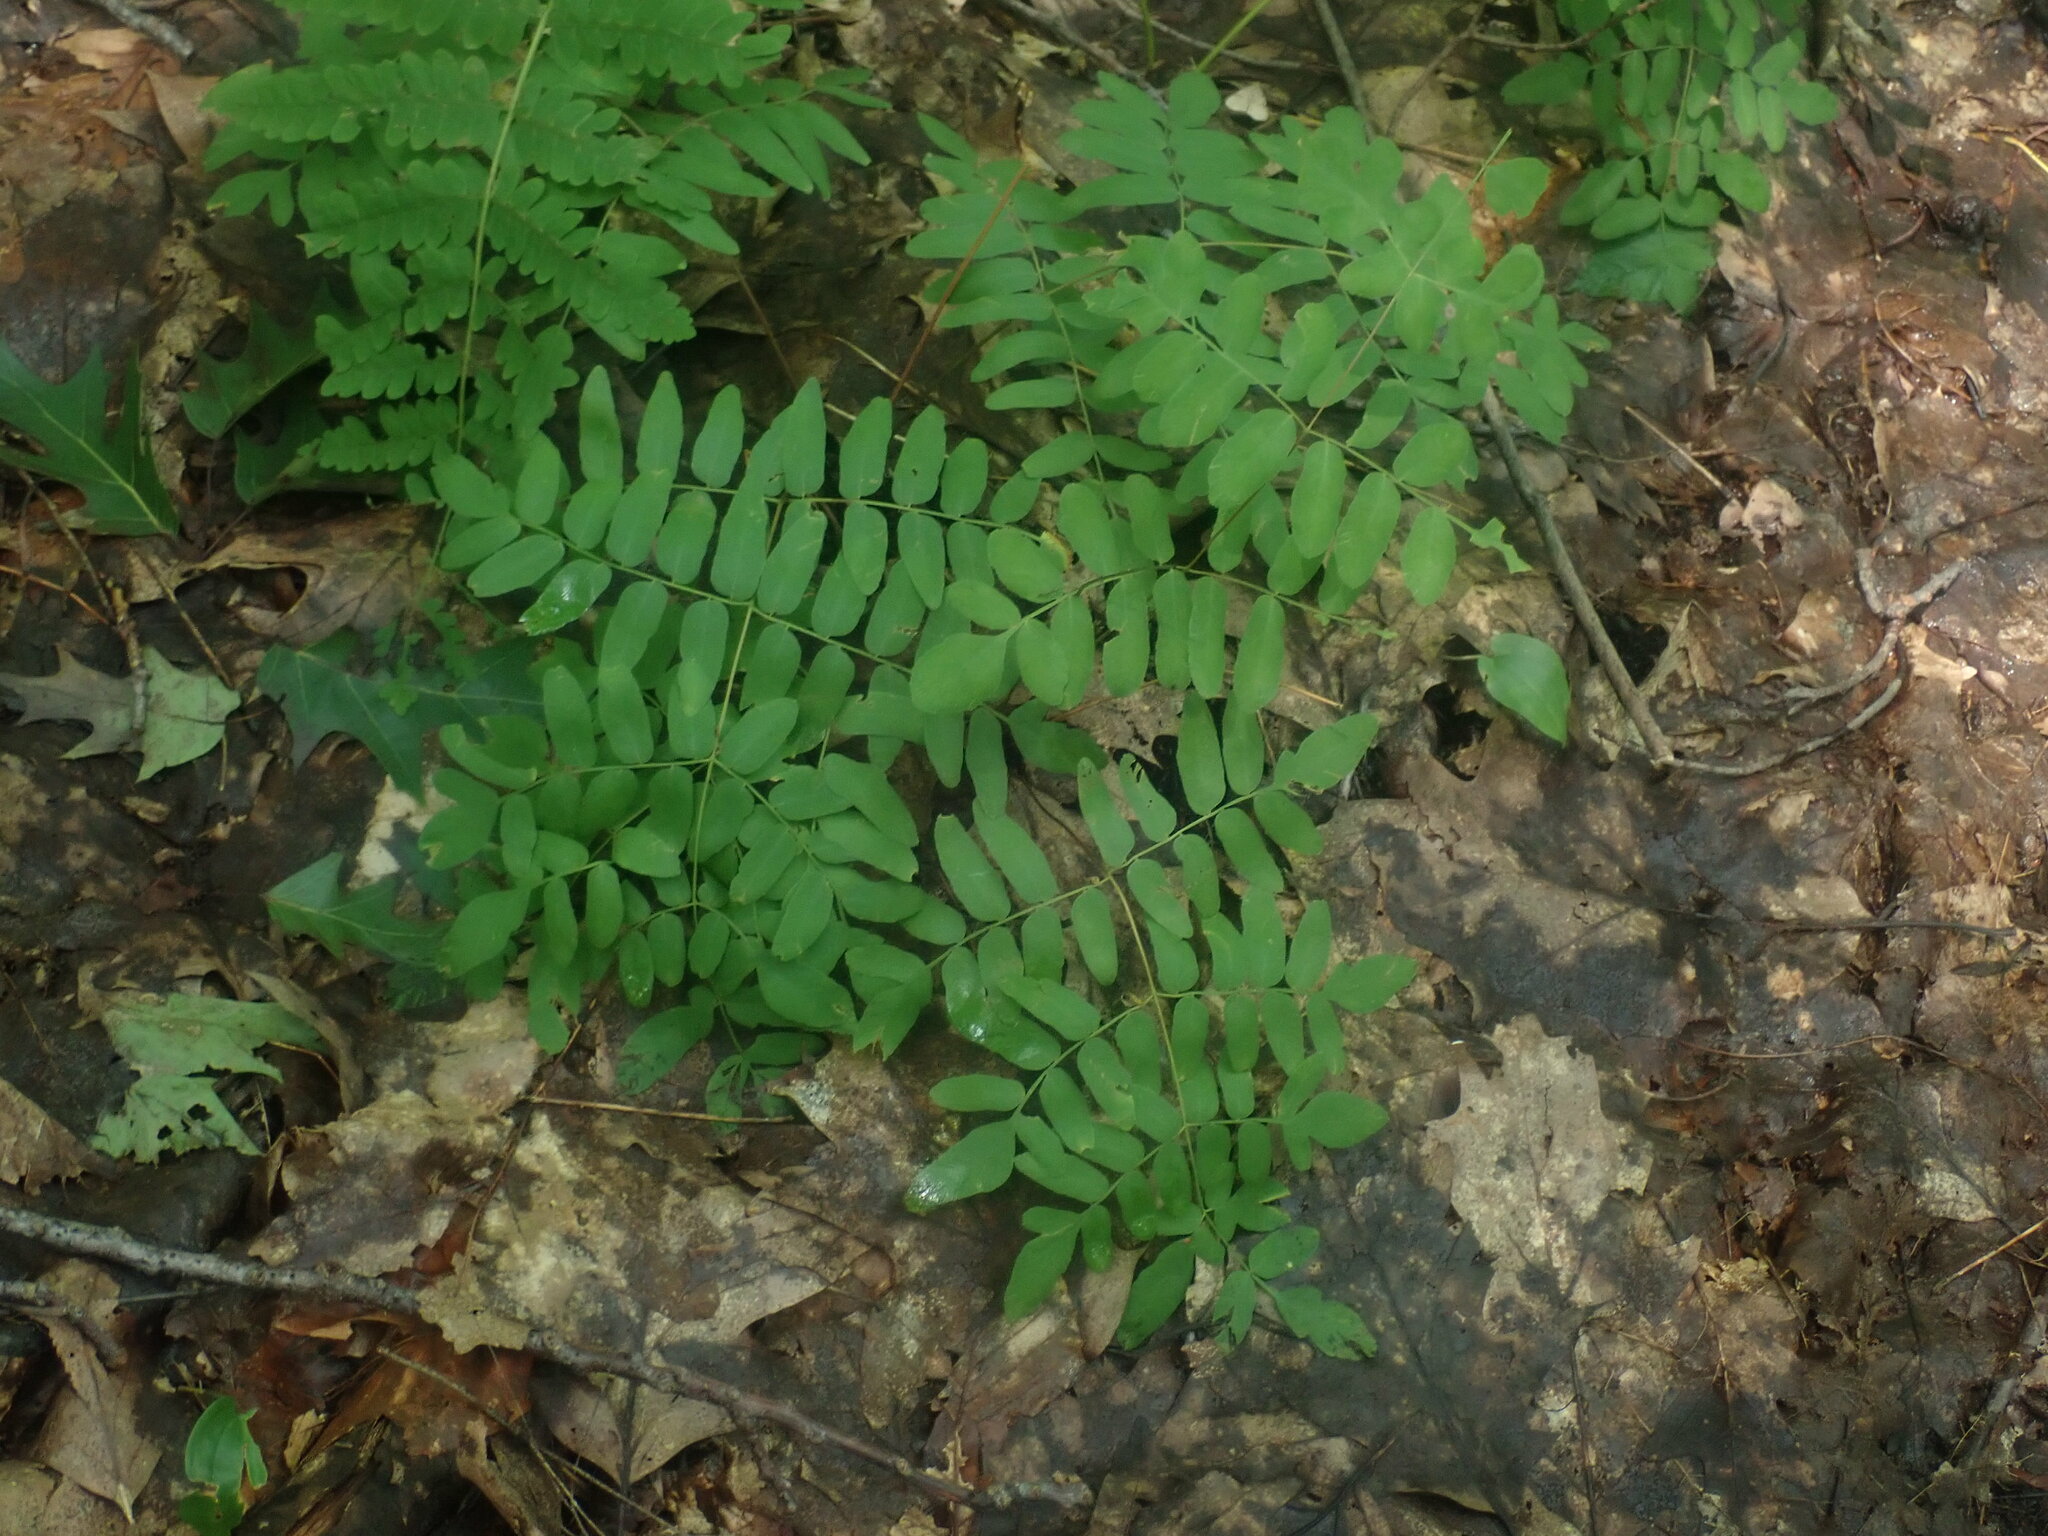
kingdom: Plantae
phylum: Tracheophyta
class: Polypodiopsida
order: Osmundales
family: Osmundaceae
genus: Osmunda
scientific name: Osmunda spectabilis
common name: American royal fern
